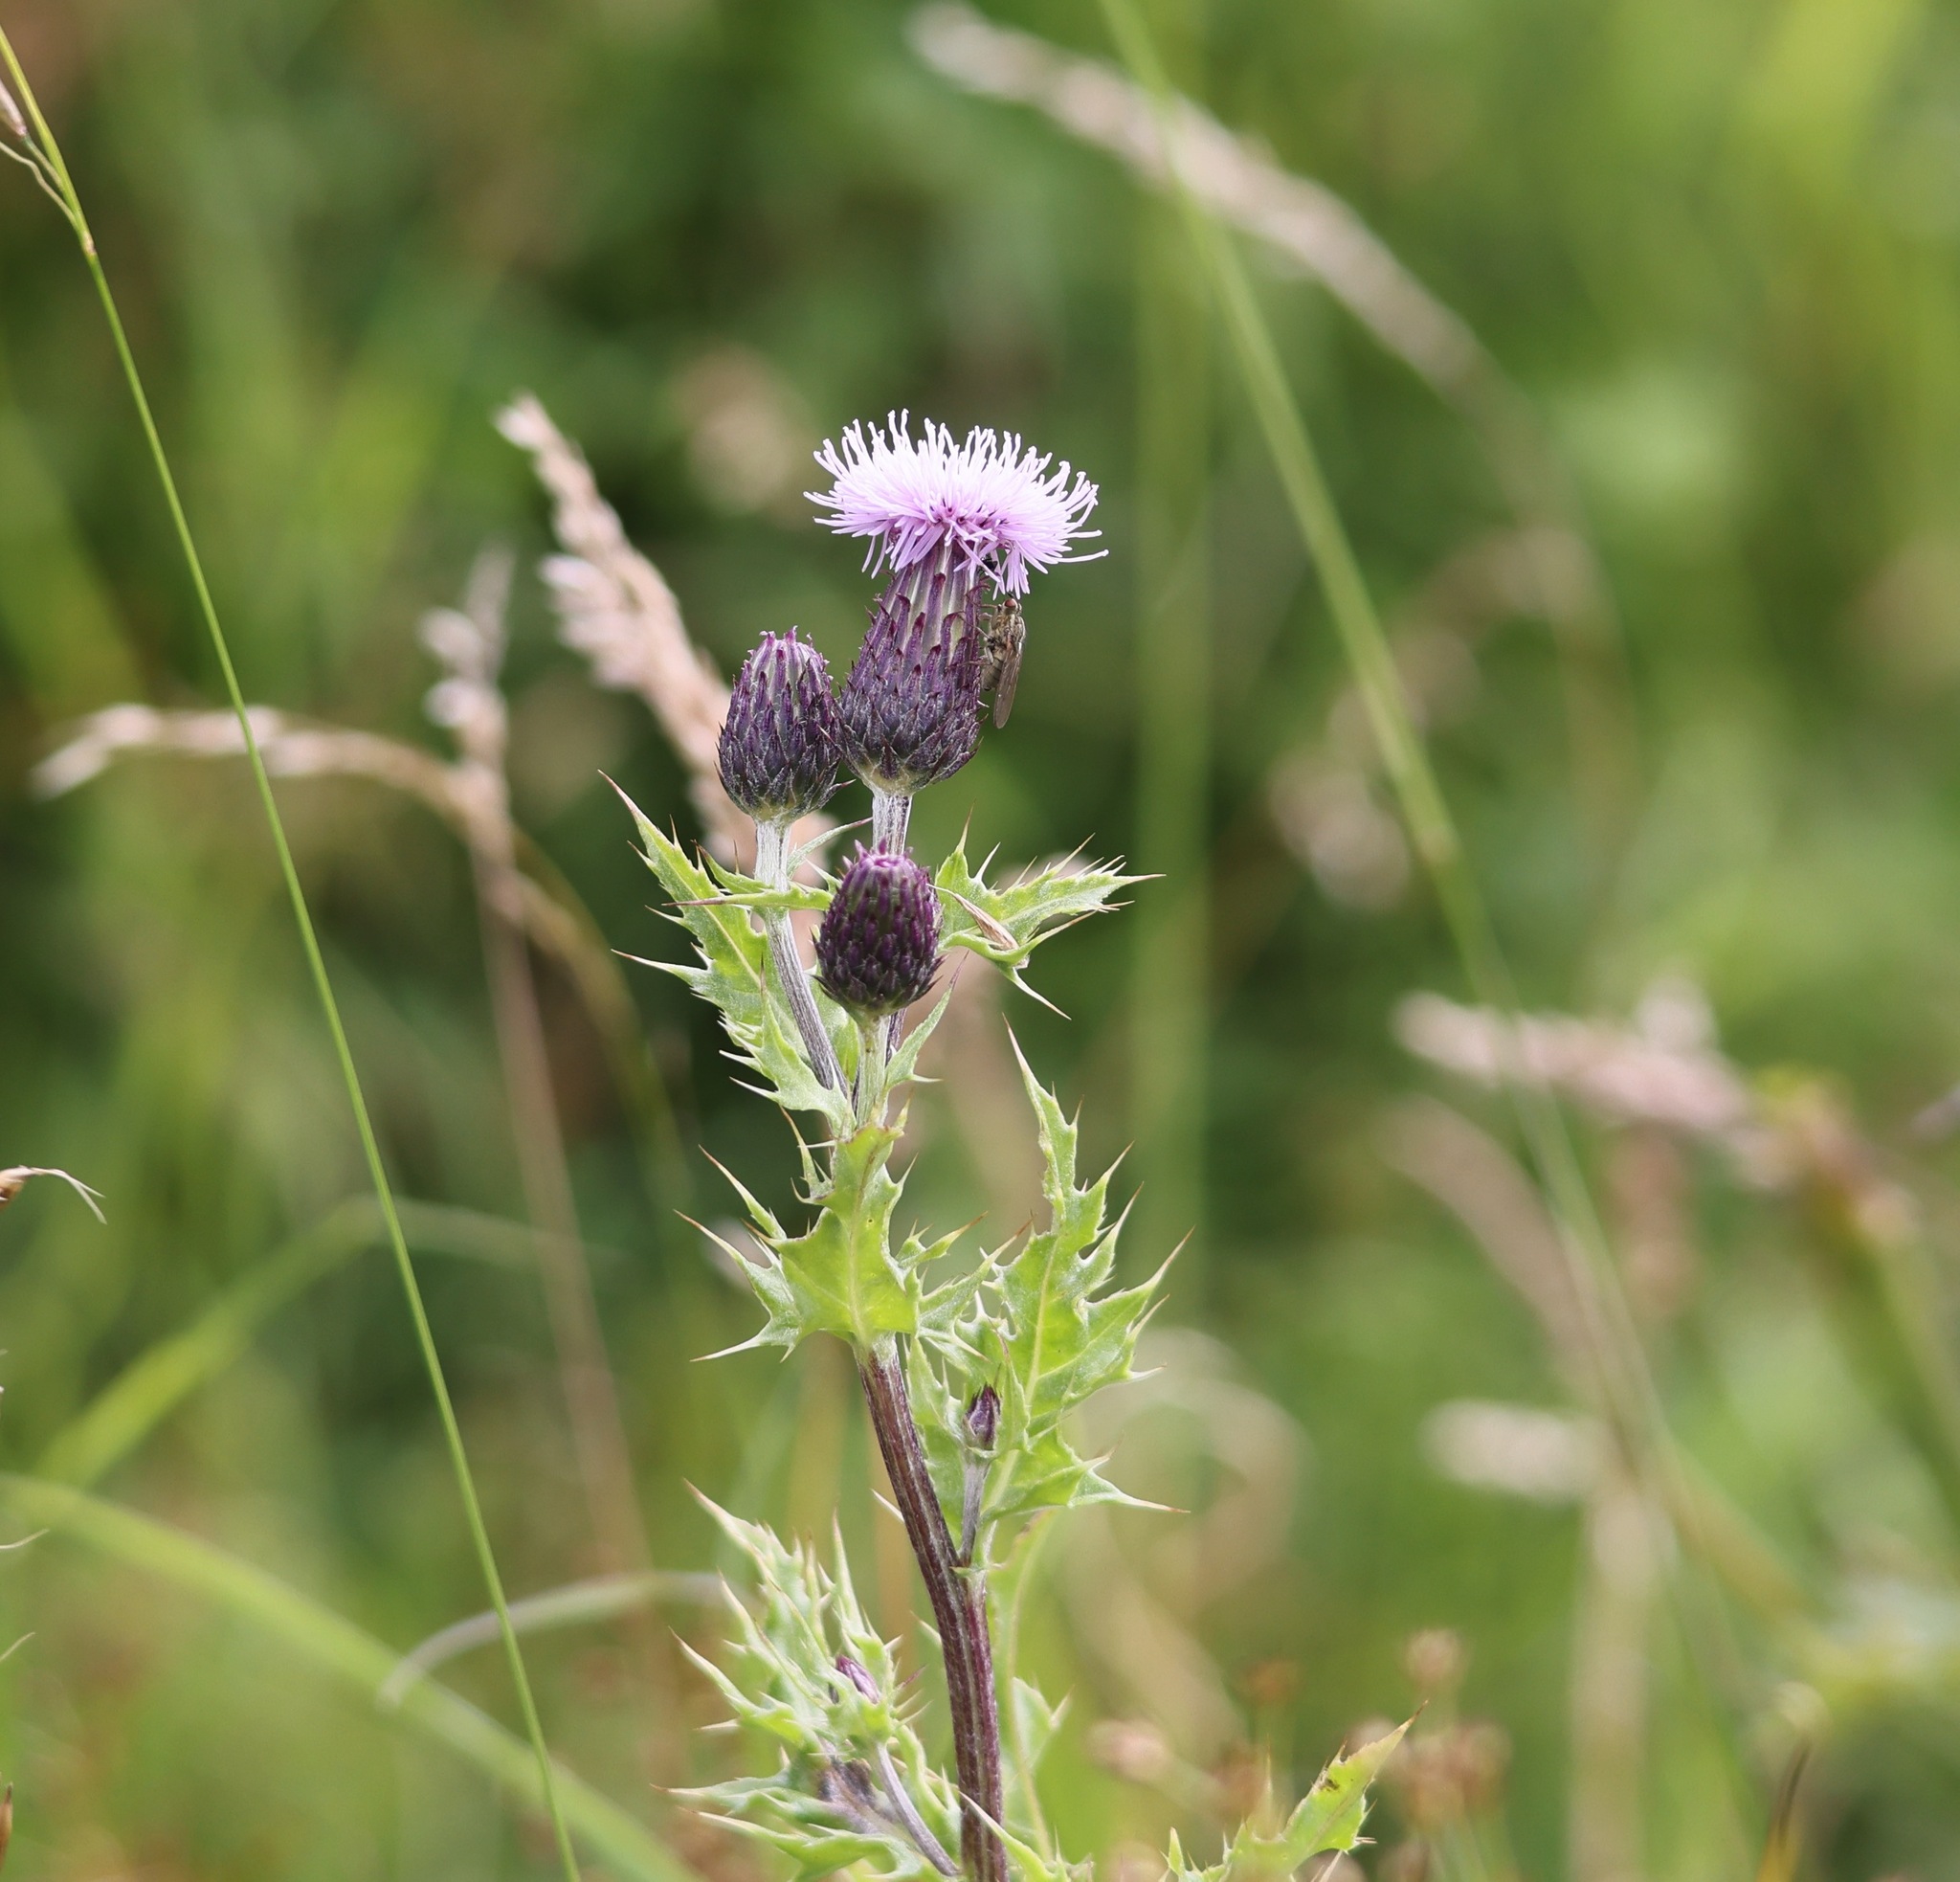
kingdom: Plantae
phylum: Tracheophyta
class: Magnoliopsida
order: Asterales
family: Asteraceae
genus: Cirsium
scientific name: Cirsium arvense
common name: Creeping thistle
